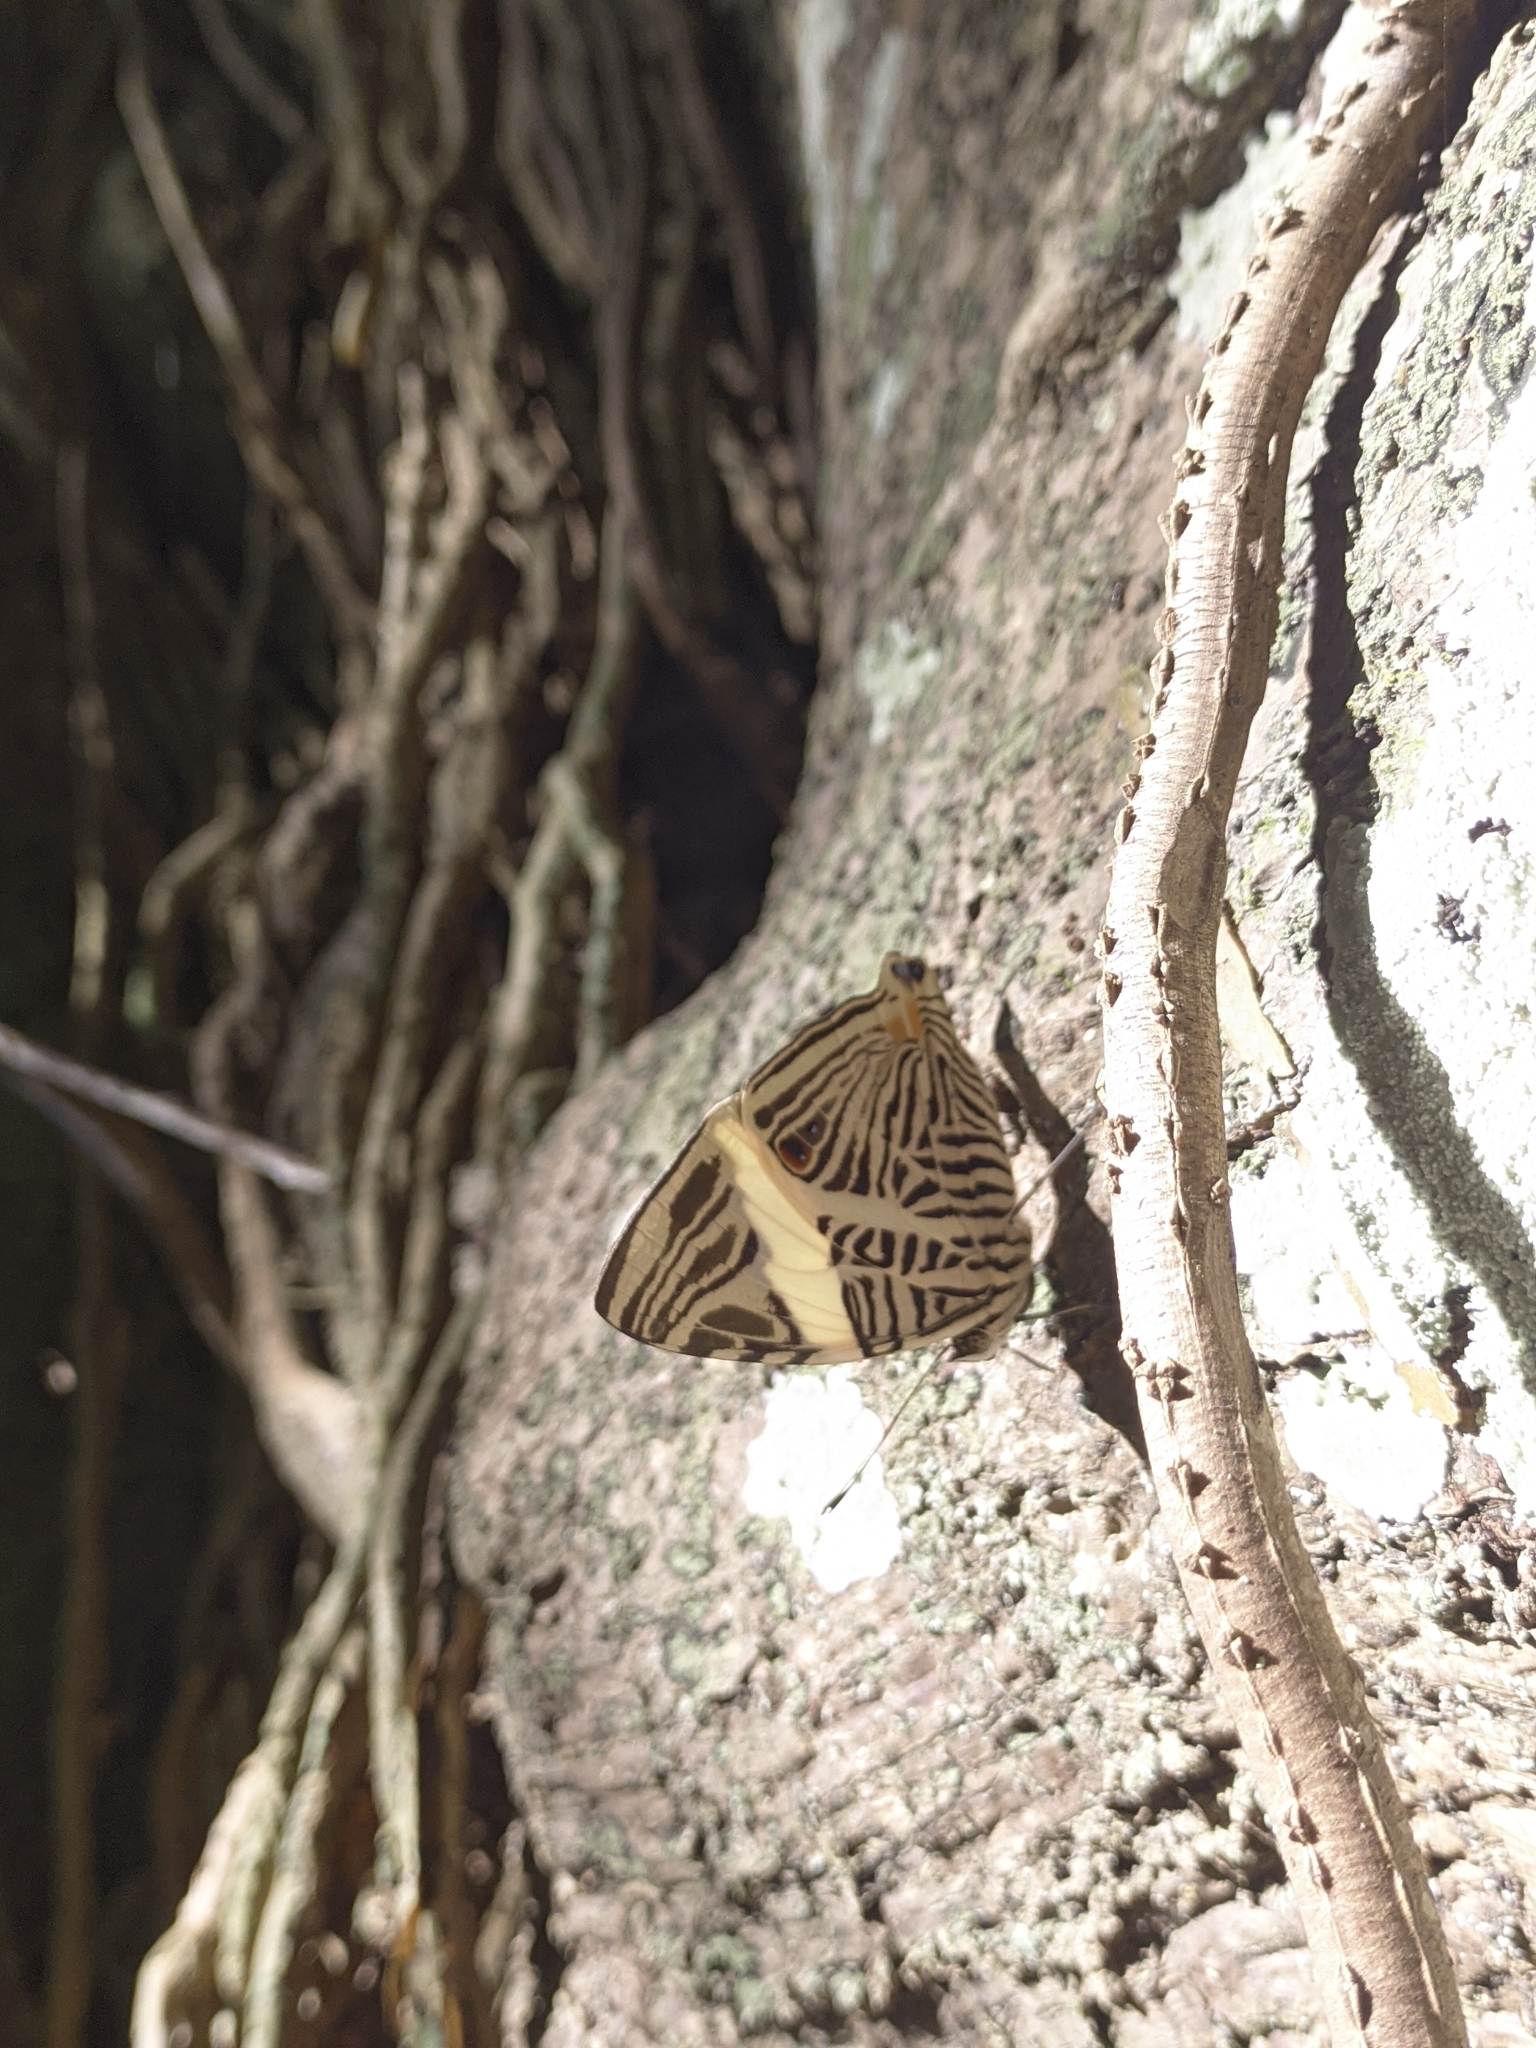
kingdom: Animalia
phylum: Arthropoda
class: Insecta
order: Lepidoptera
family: Nymphalidae
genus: Colobura
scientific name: Colobura dirce
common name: Dirce beauty
